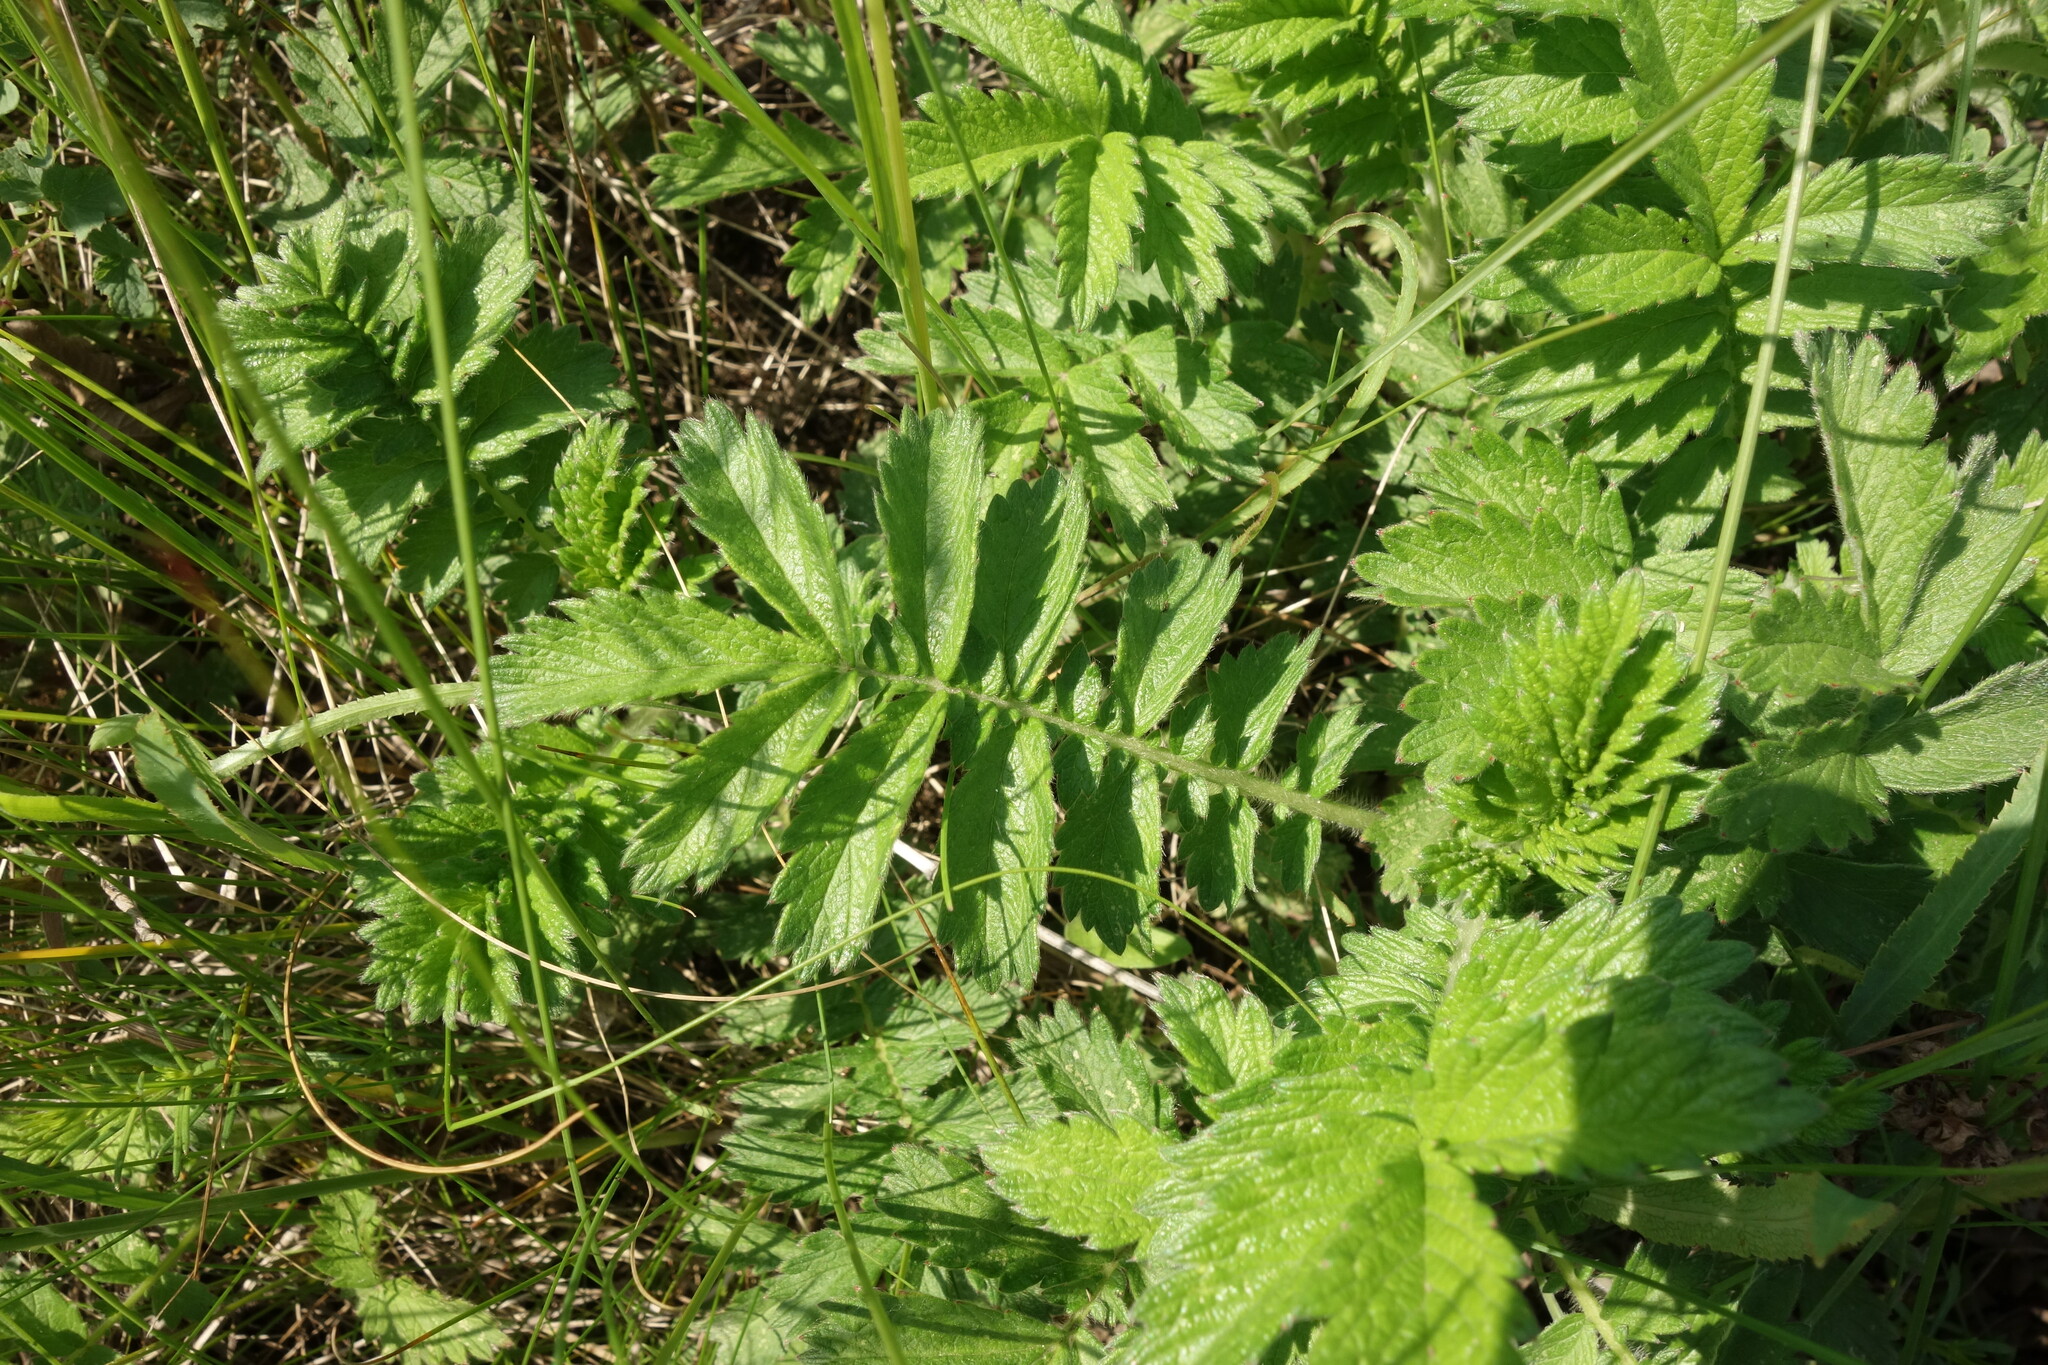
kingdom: Plantae
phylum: Tracheophyta
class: Magnoliopsida
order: Rosales
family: Rosaceae
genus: Agrimonia
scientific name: Agrimonia eupatoria
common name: Agrimony
